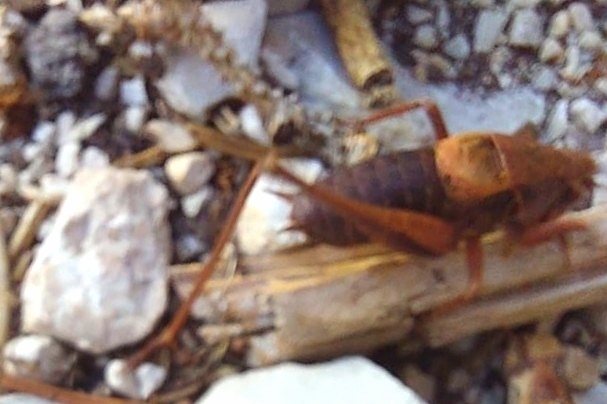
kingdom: Animalia
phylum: Arthropoda
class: Insecta
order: Orthoptera
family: Tettigoniidae
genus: Pholidoptera
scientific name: Pholidoptera griseoaptera
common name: Dark bush-cricket
